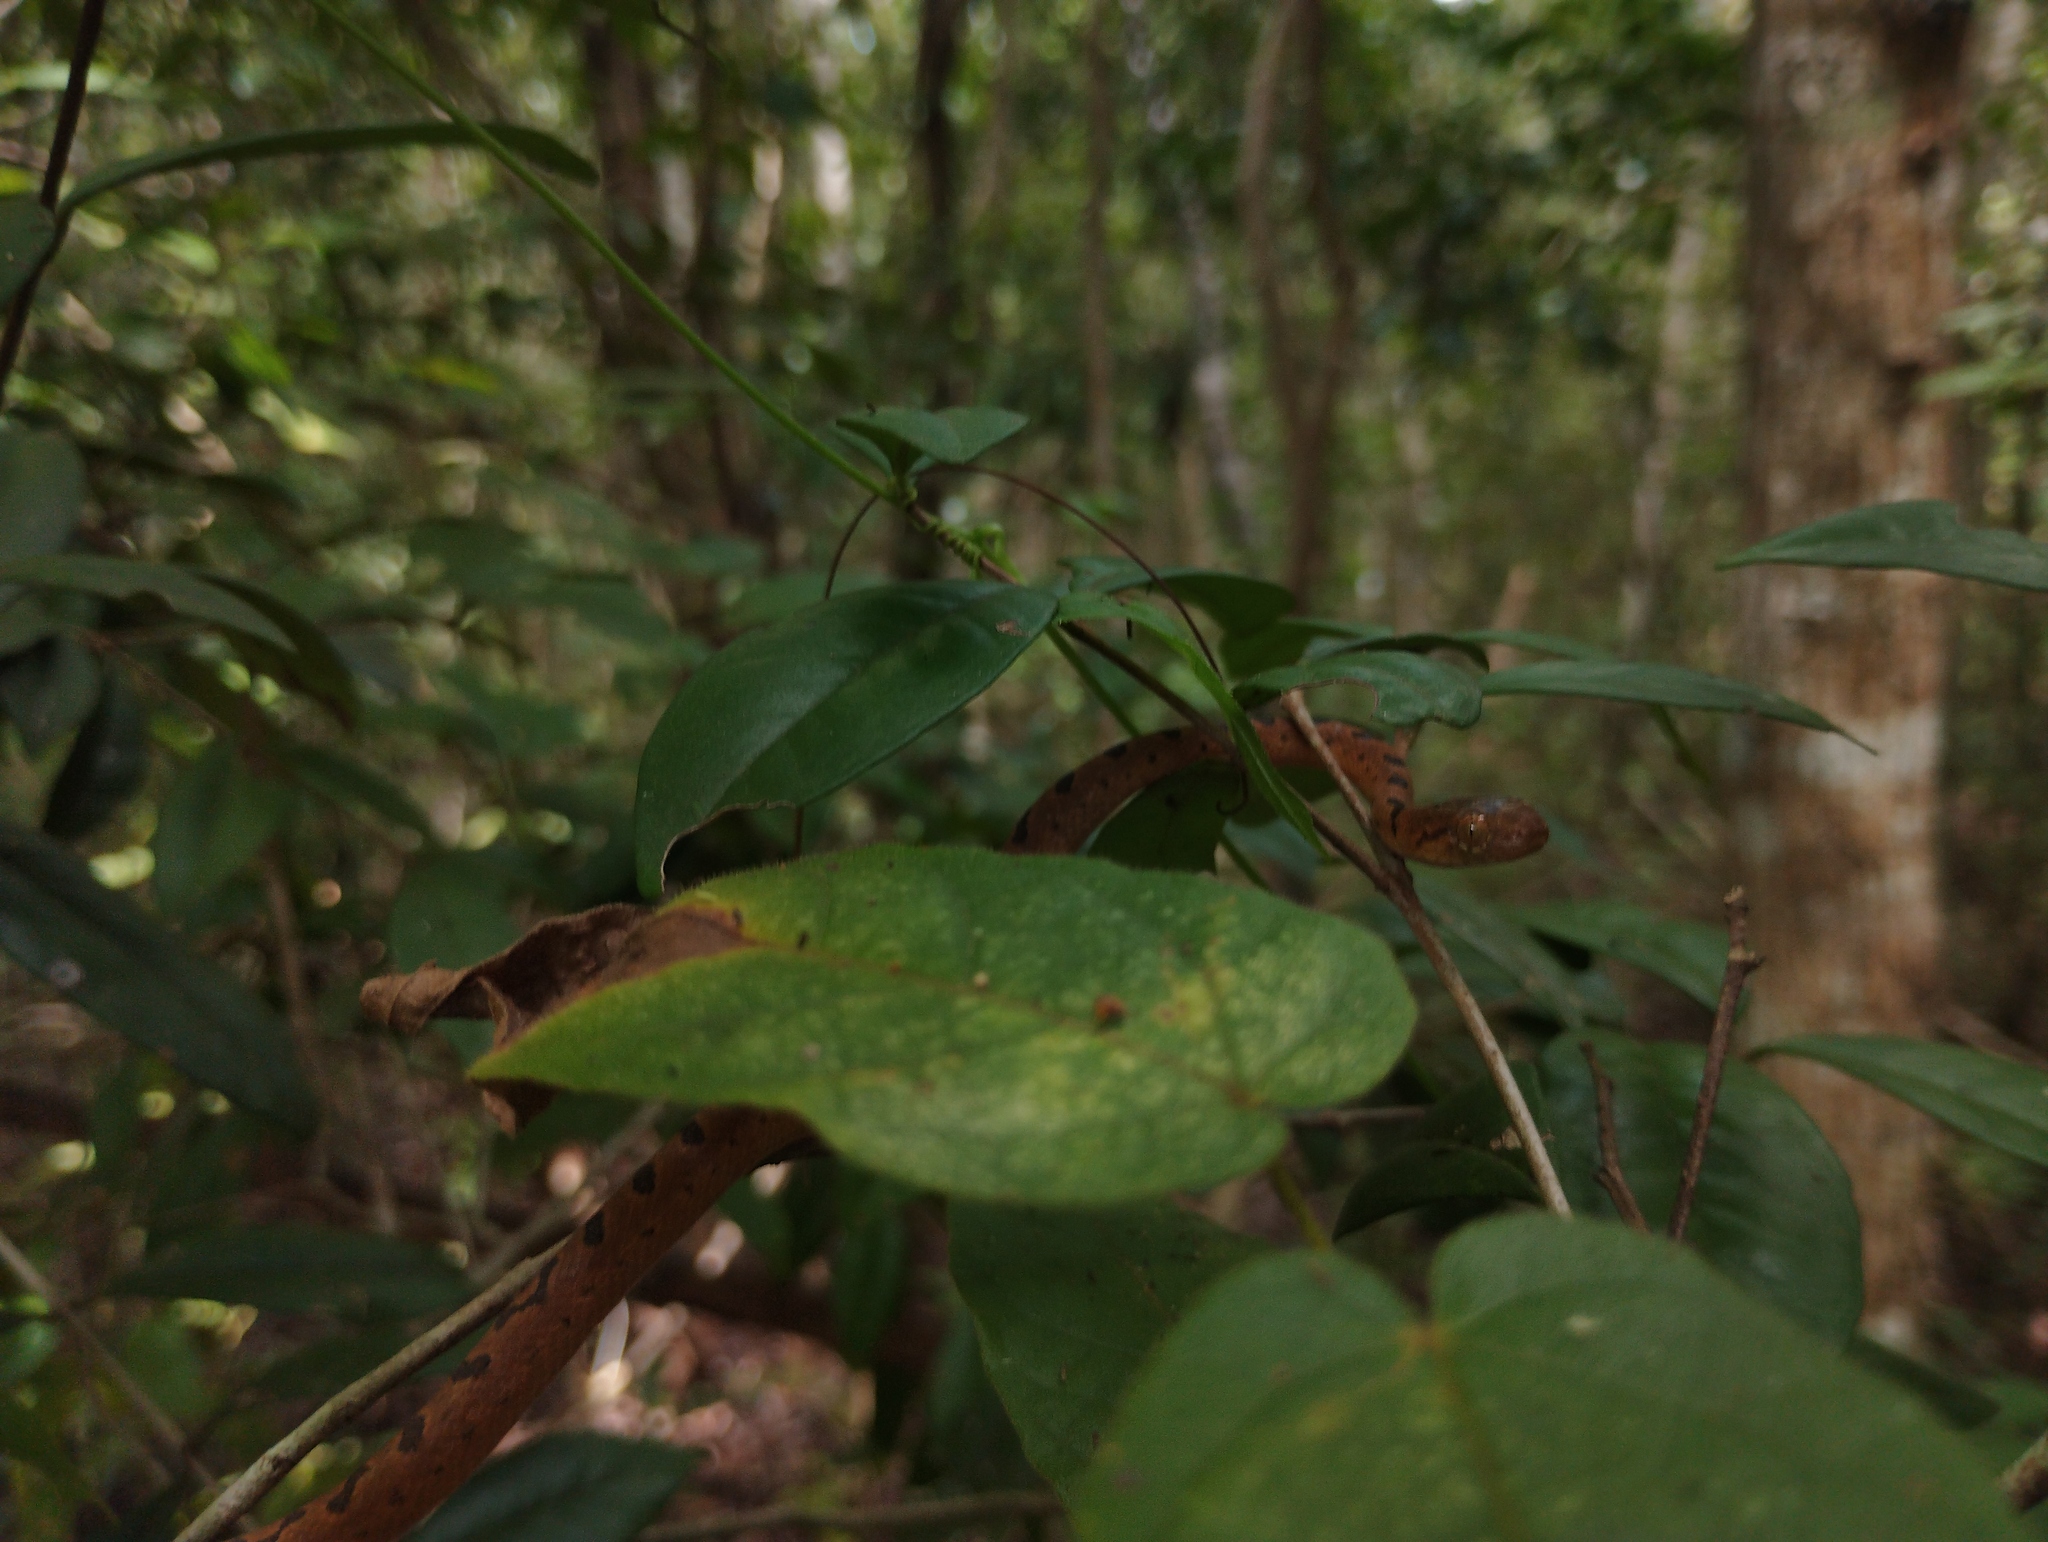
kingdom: Animalia
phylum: Chordata
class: Squamata
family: Colubridae
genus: Leptodeira
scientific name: Leptodeira septentrionalis
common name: Northern cat-eyed snake
